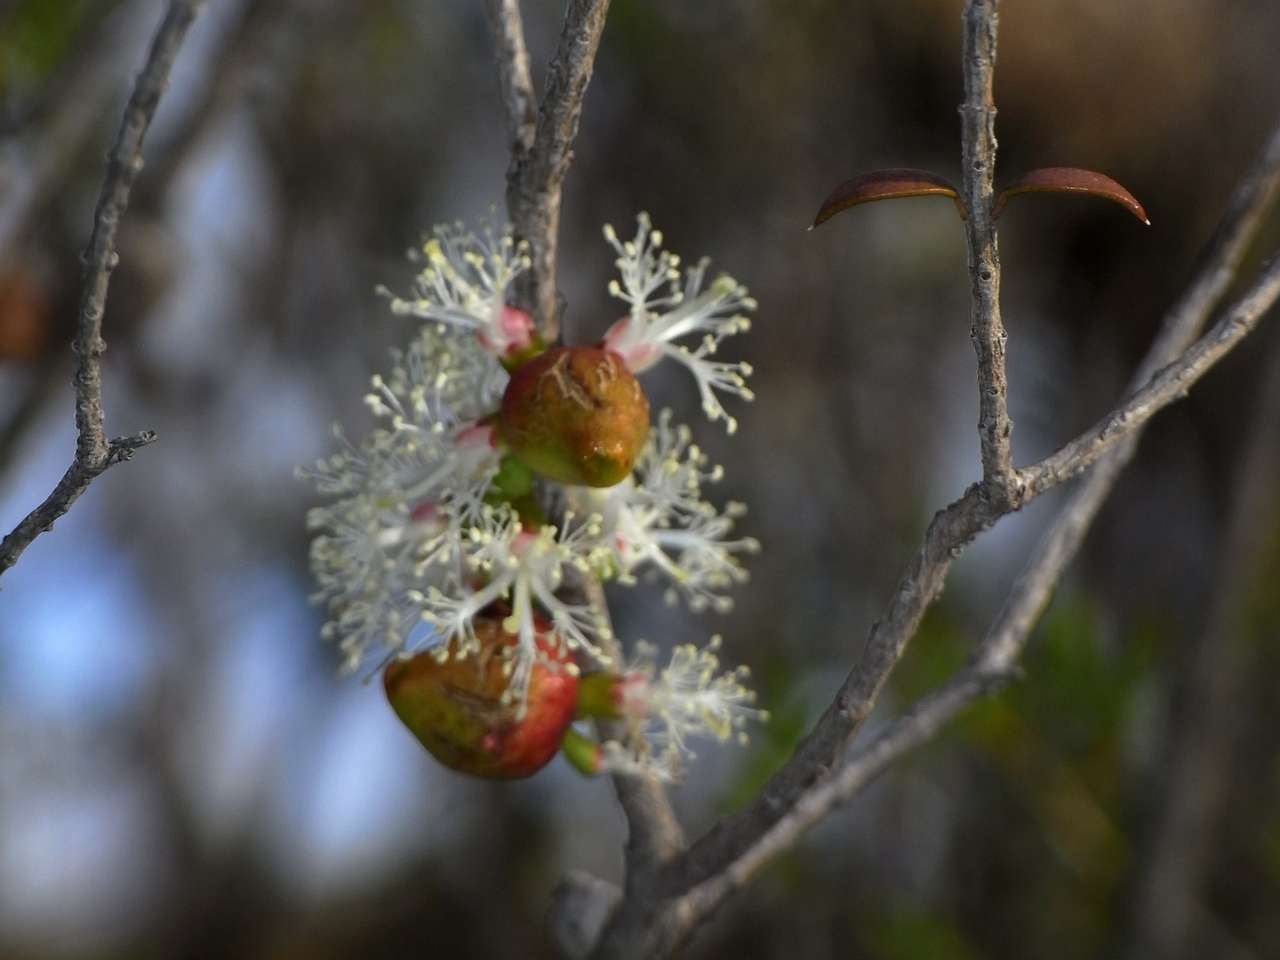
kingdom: Plantae
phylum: Tracheophyta
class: Magnoliopsida
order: Myrtales
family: Myrtaceae
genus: Melaleuca
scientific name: Melaleuca acuminata
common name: Mallee honey myrtle
